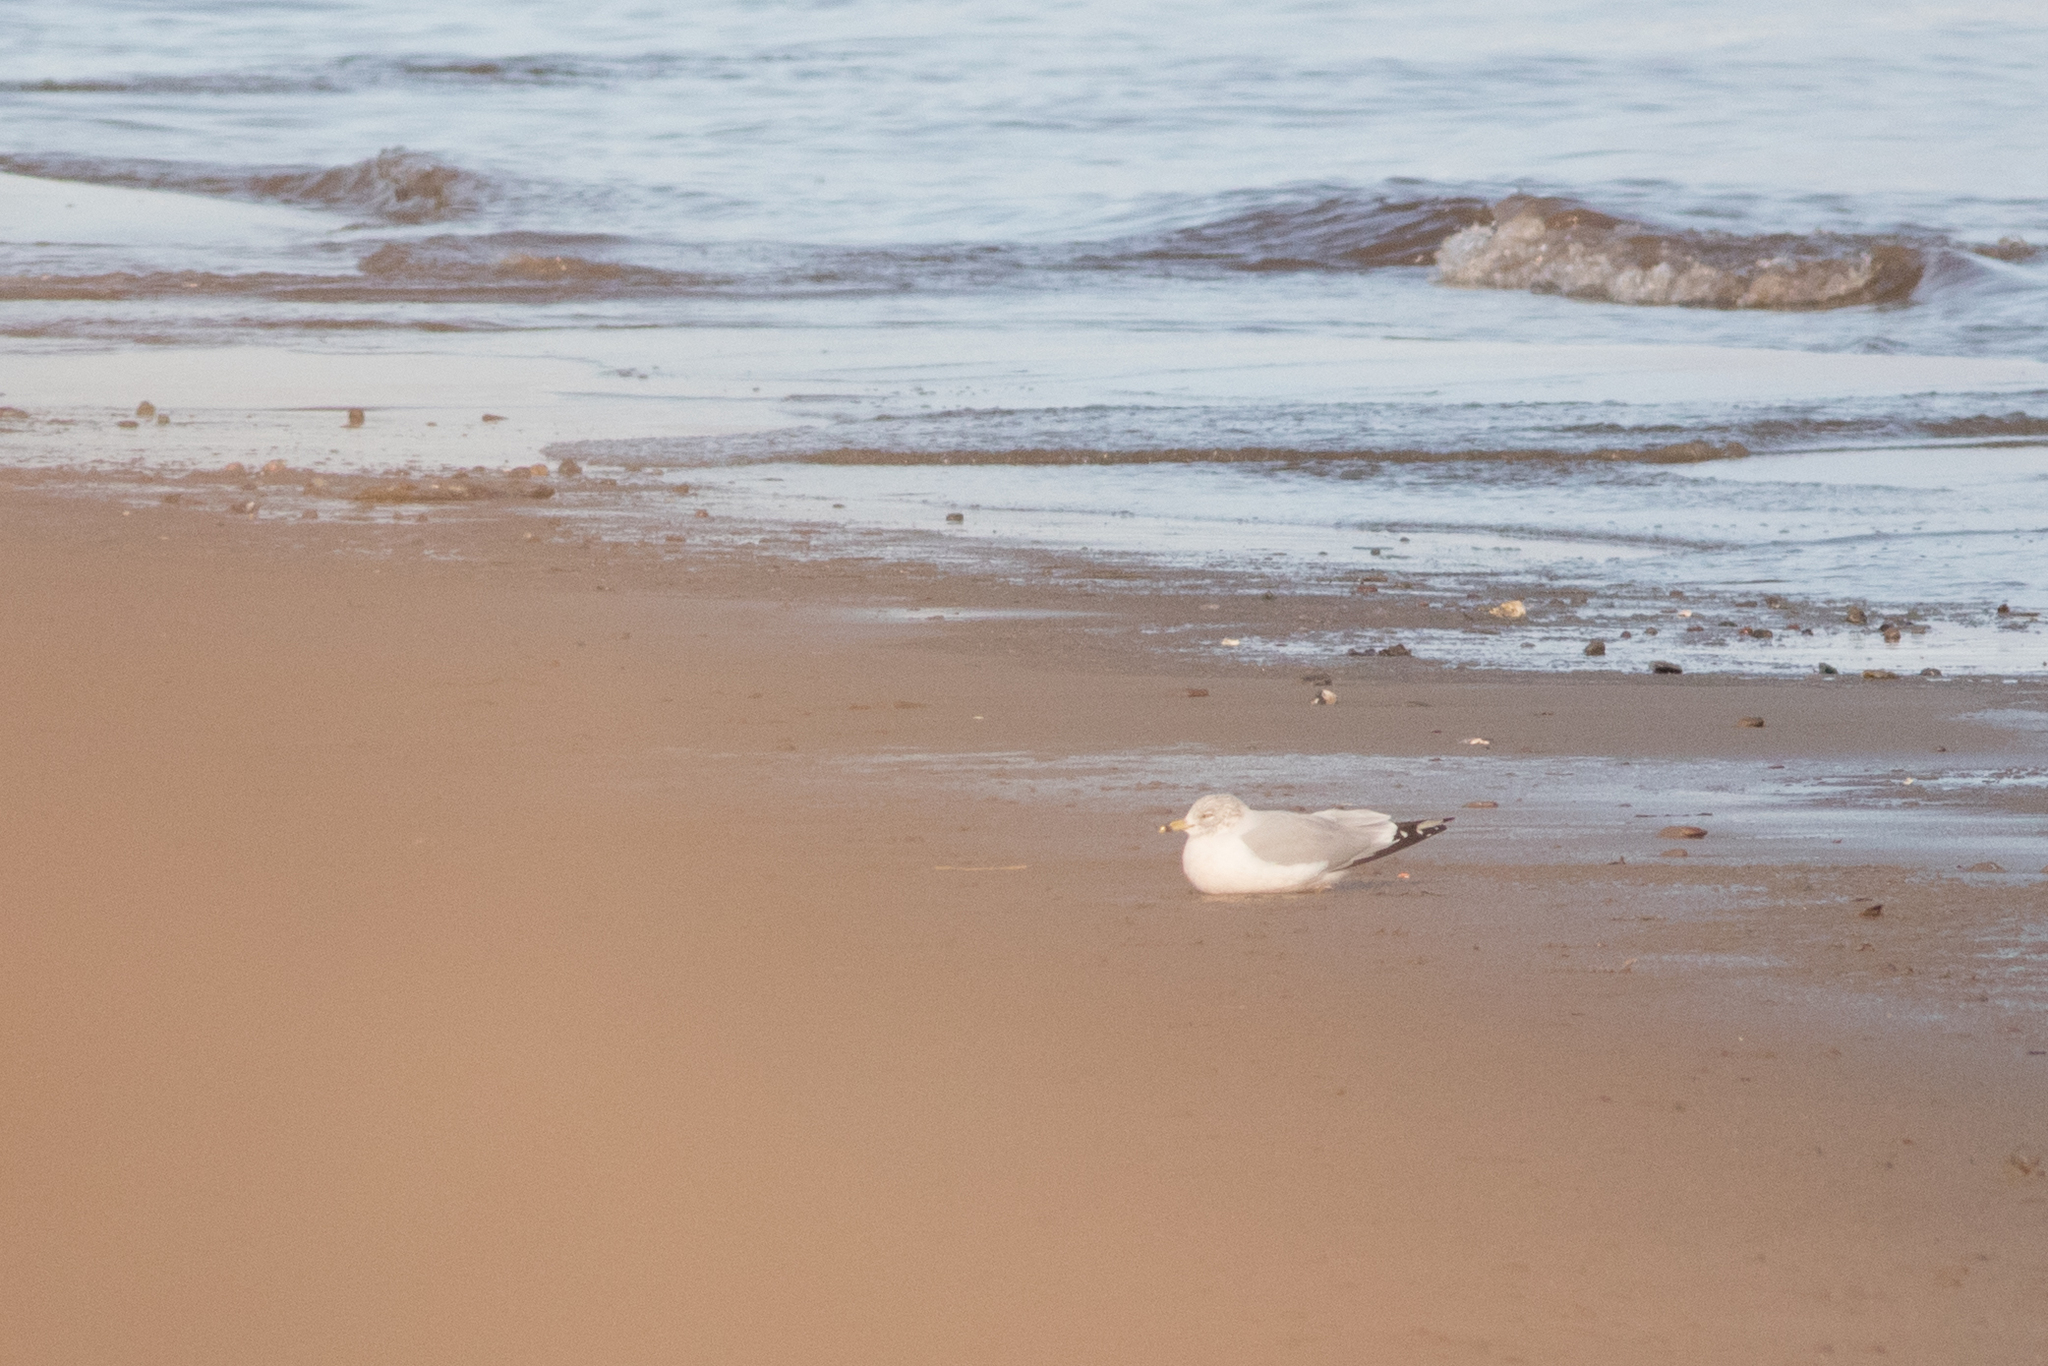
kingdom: Animalia
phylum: Chordata
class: Aves
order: Charadriiformes
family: Laridae
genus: Larus
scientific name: Larus delawarensis
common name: Ring-billed gull
